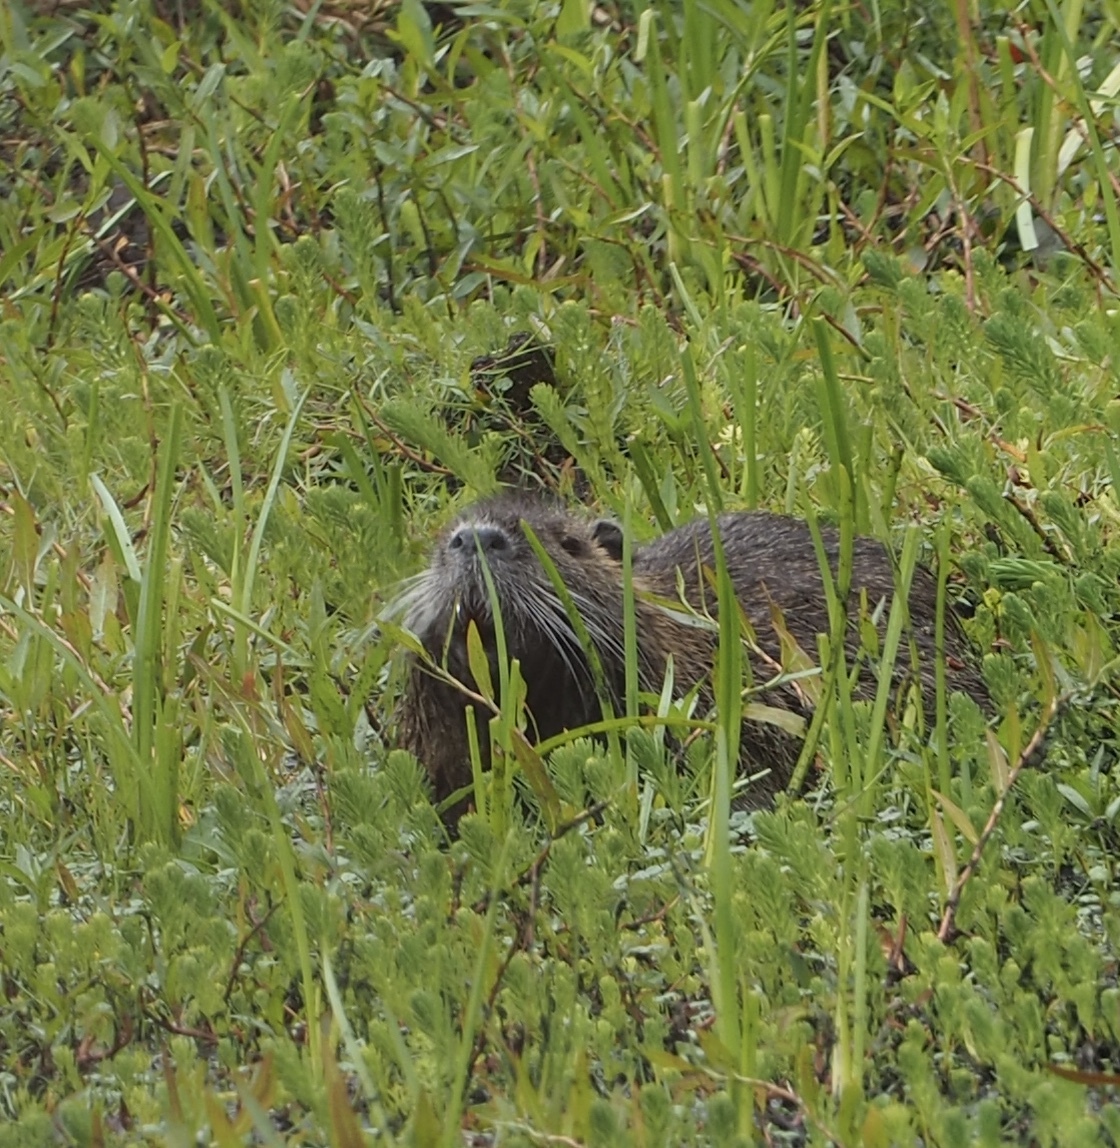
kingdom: Animalia
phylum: Chordata
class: Mammalia
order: Rodentia
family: Myocastoridae
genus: Myocastor
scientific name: Myocastor coypus
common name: Coypu
